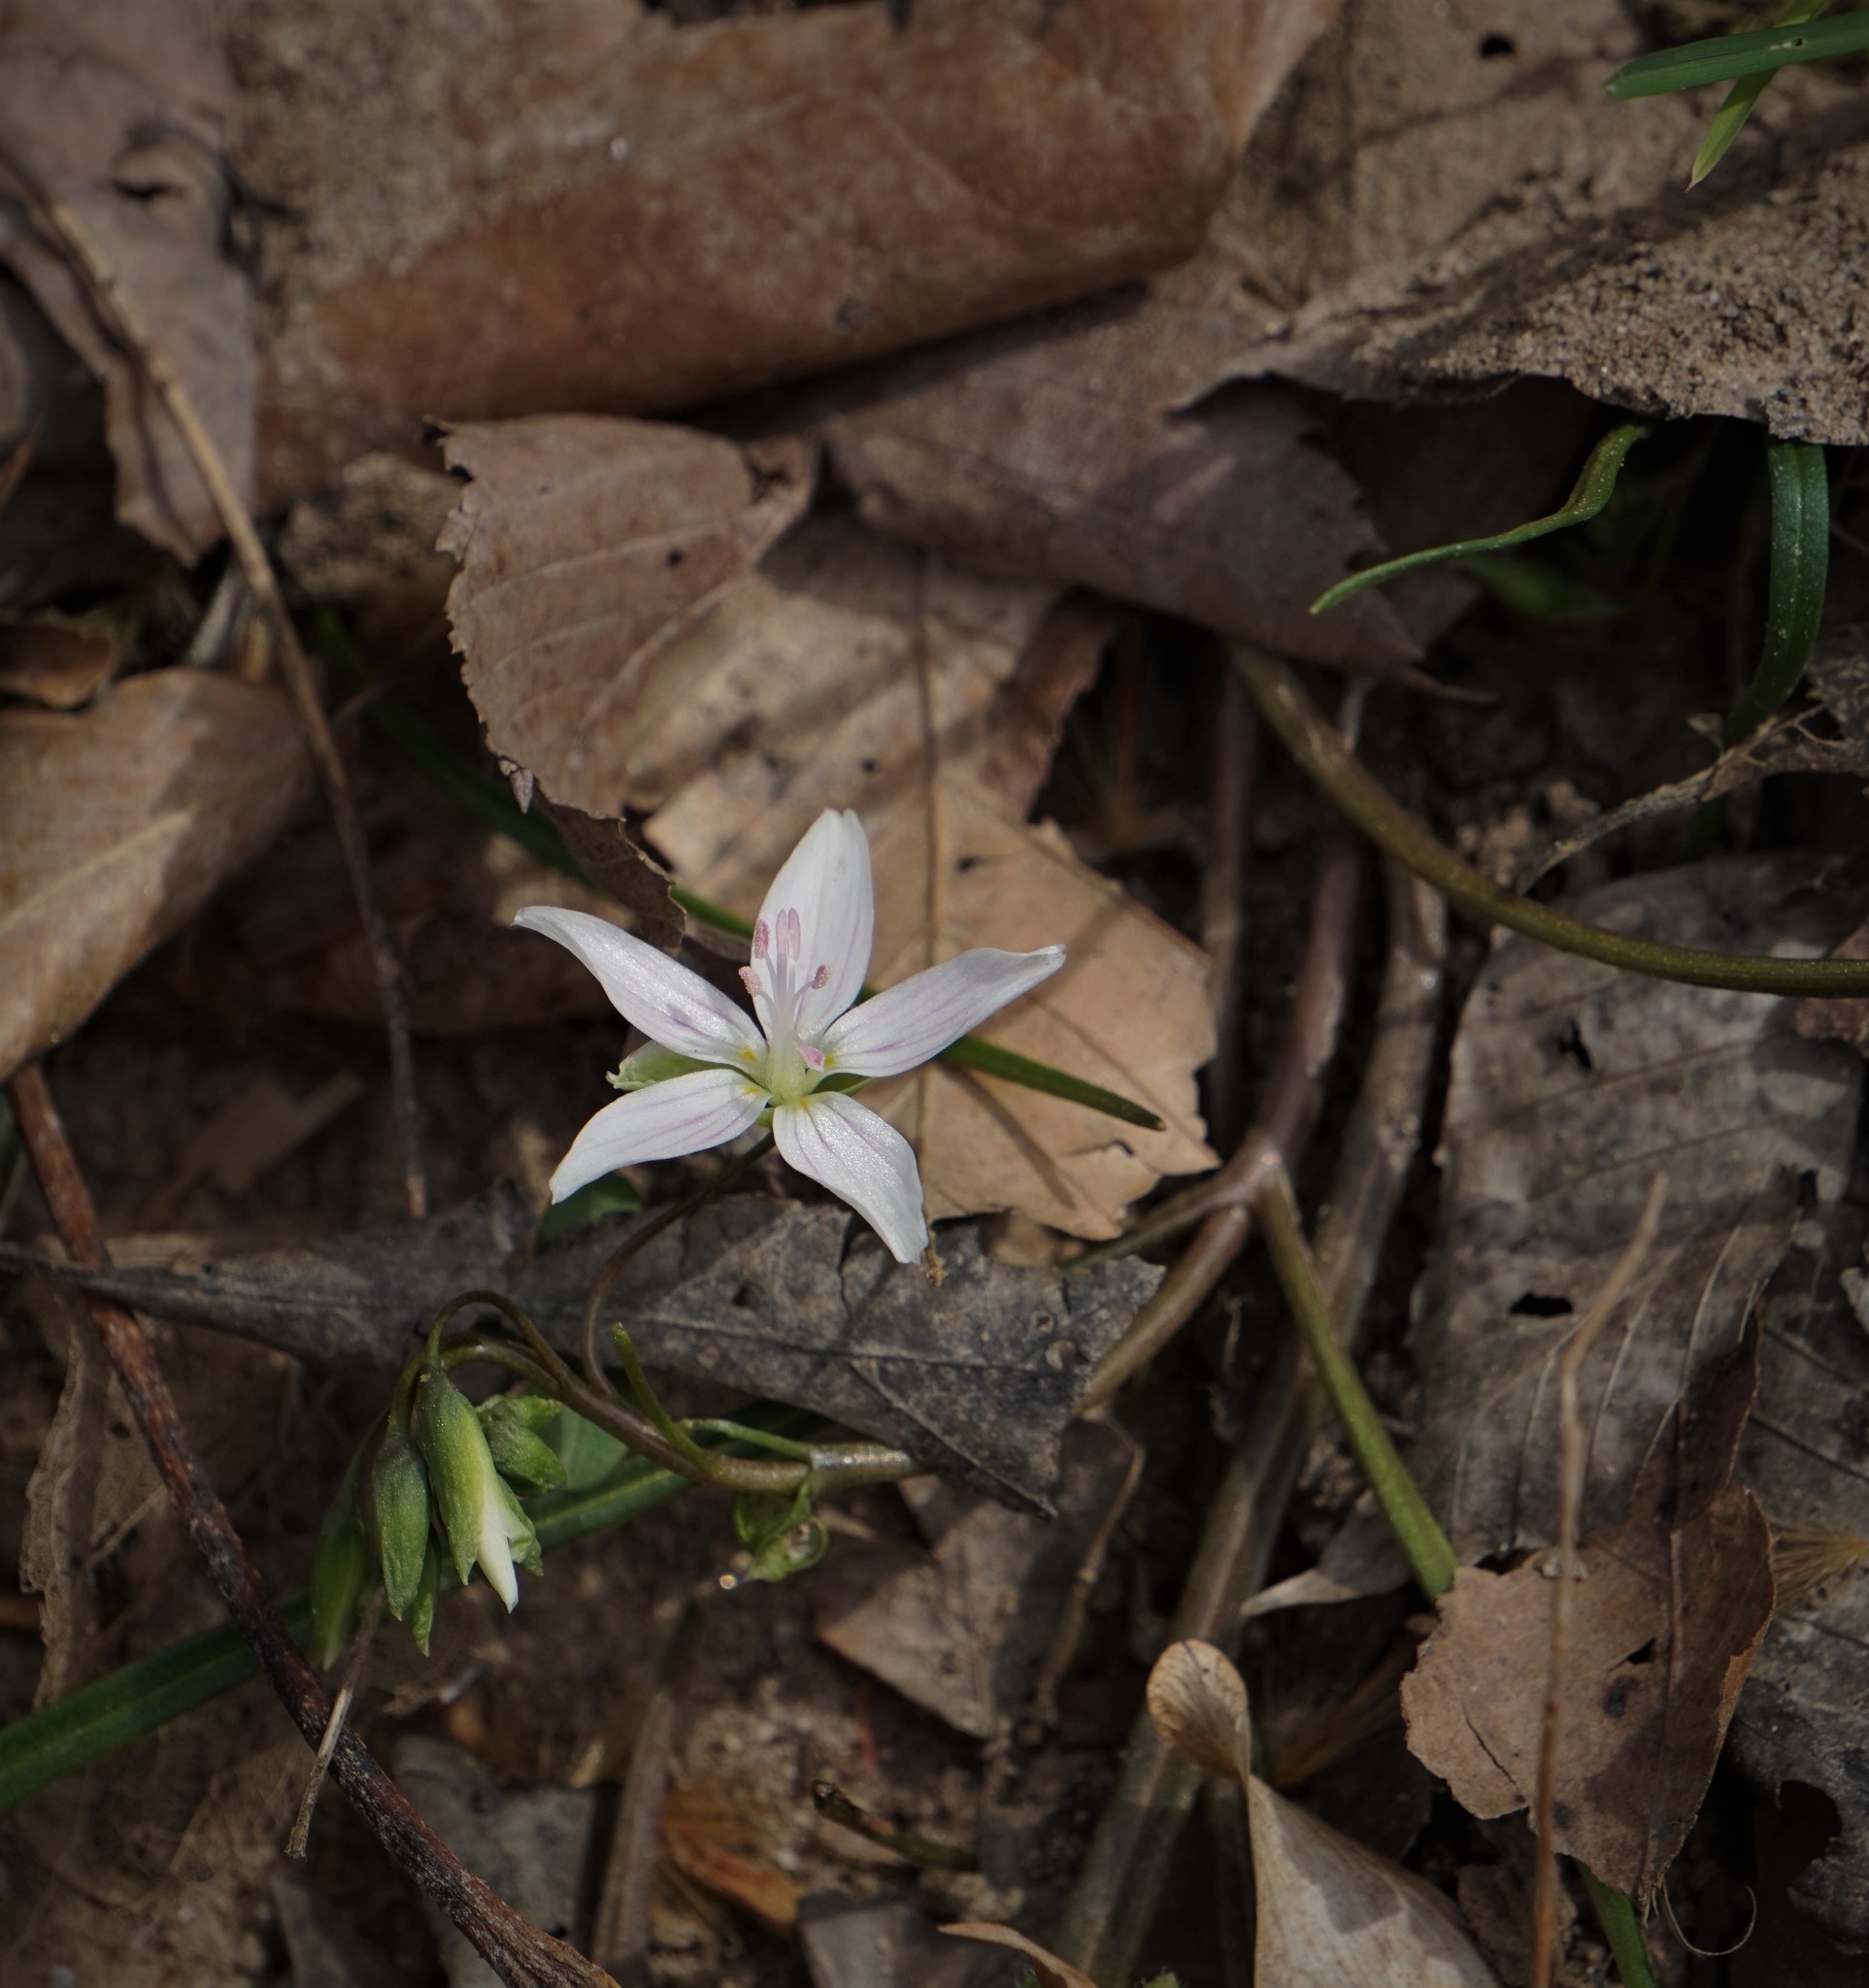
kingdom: Plantae
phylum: Tracheophyta
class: Magnoliopsida
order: Caryophyllales
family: Montiaceae
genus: Claytonia
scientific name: Claytonia virginica
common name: Virginia springbeauty
